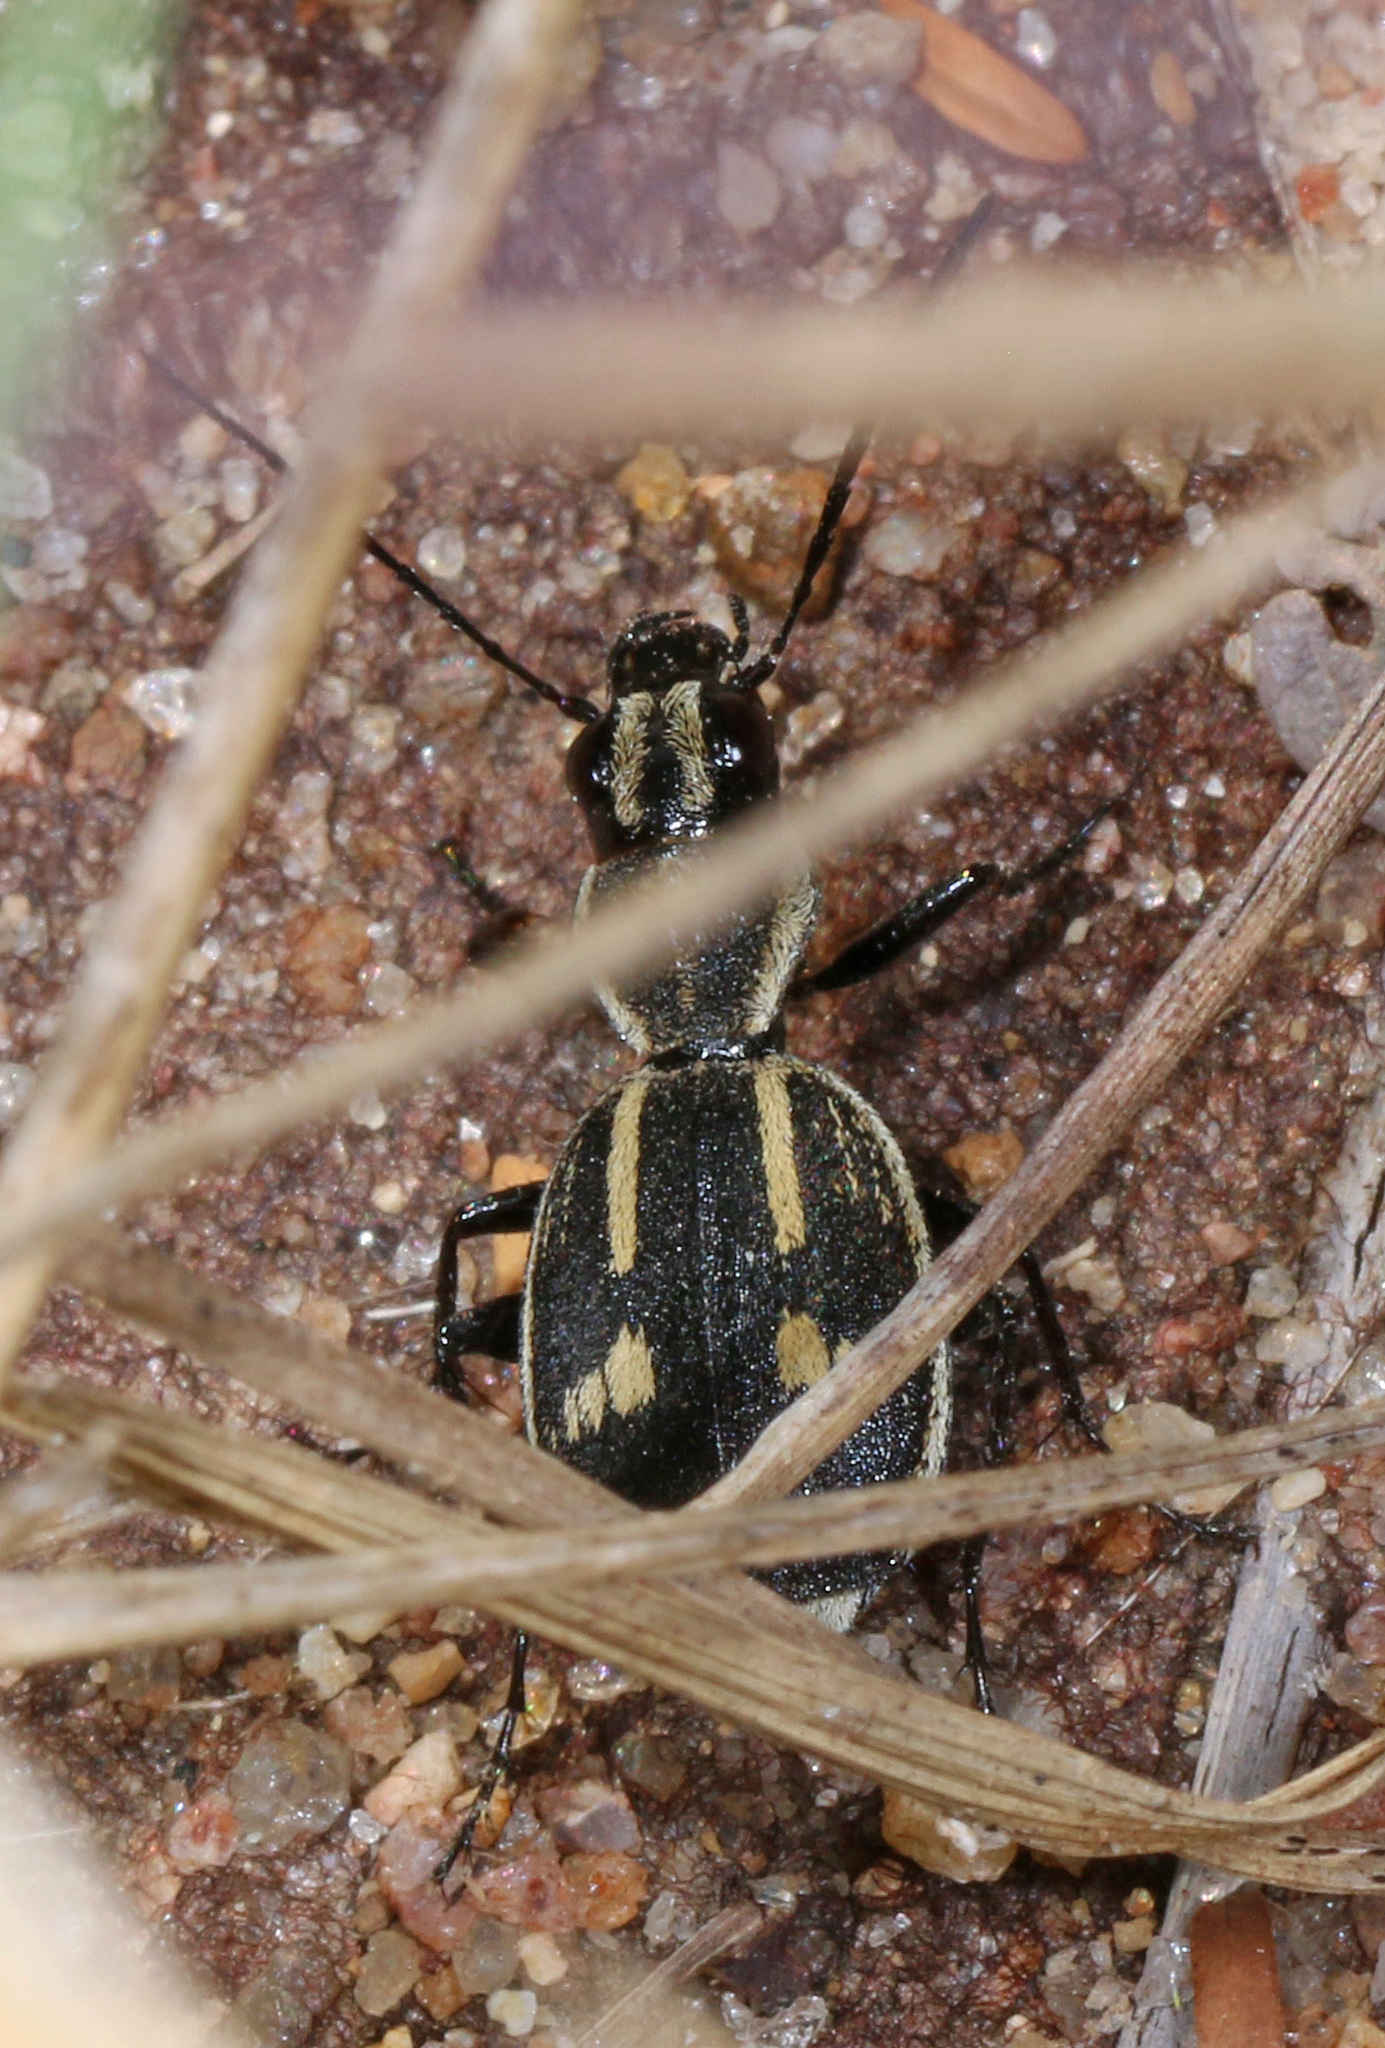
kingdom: Animalia
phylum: Arthropoda
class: Insecta
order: Coleoptera
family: Carabidae
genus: Graphipterus
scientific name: Graphipterus tristis
